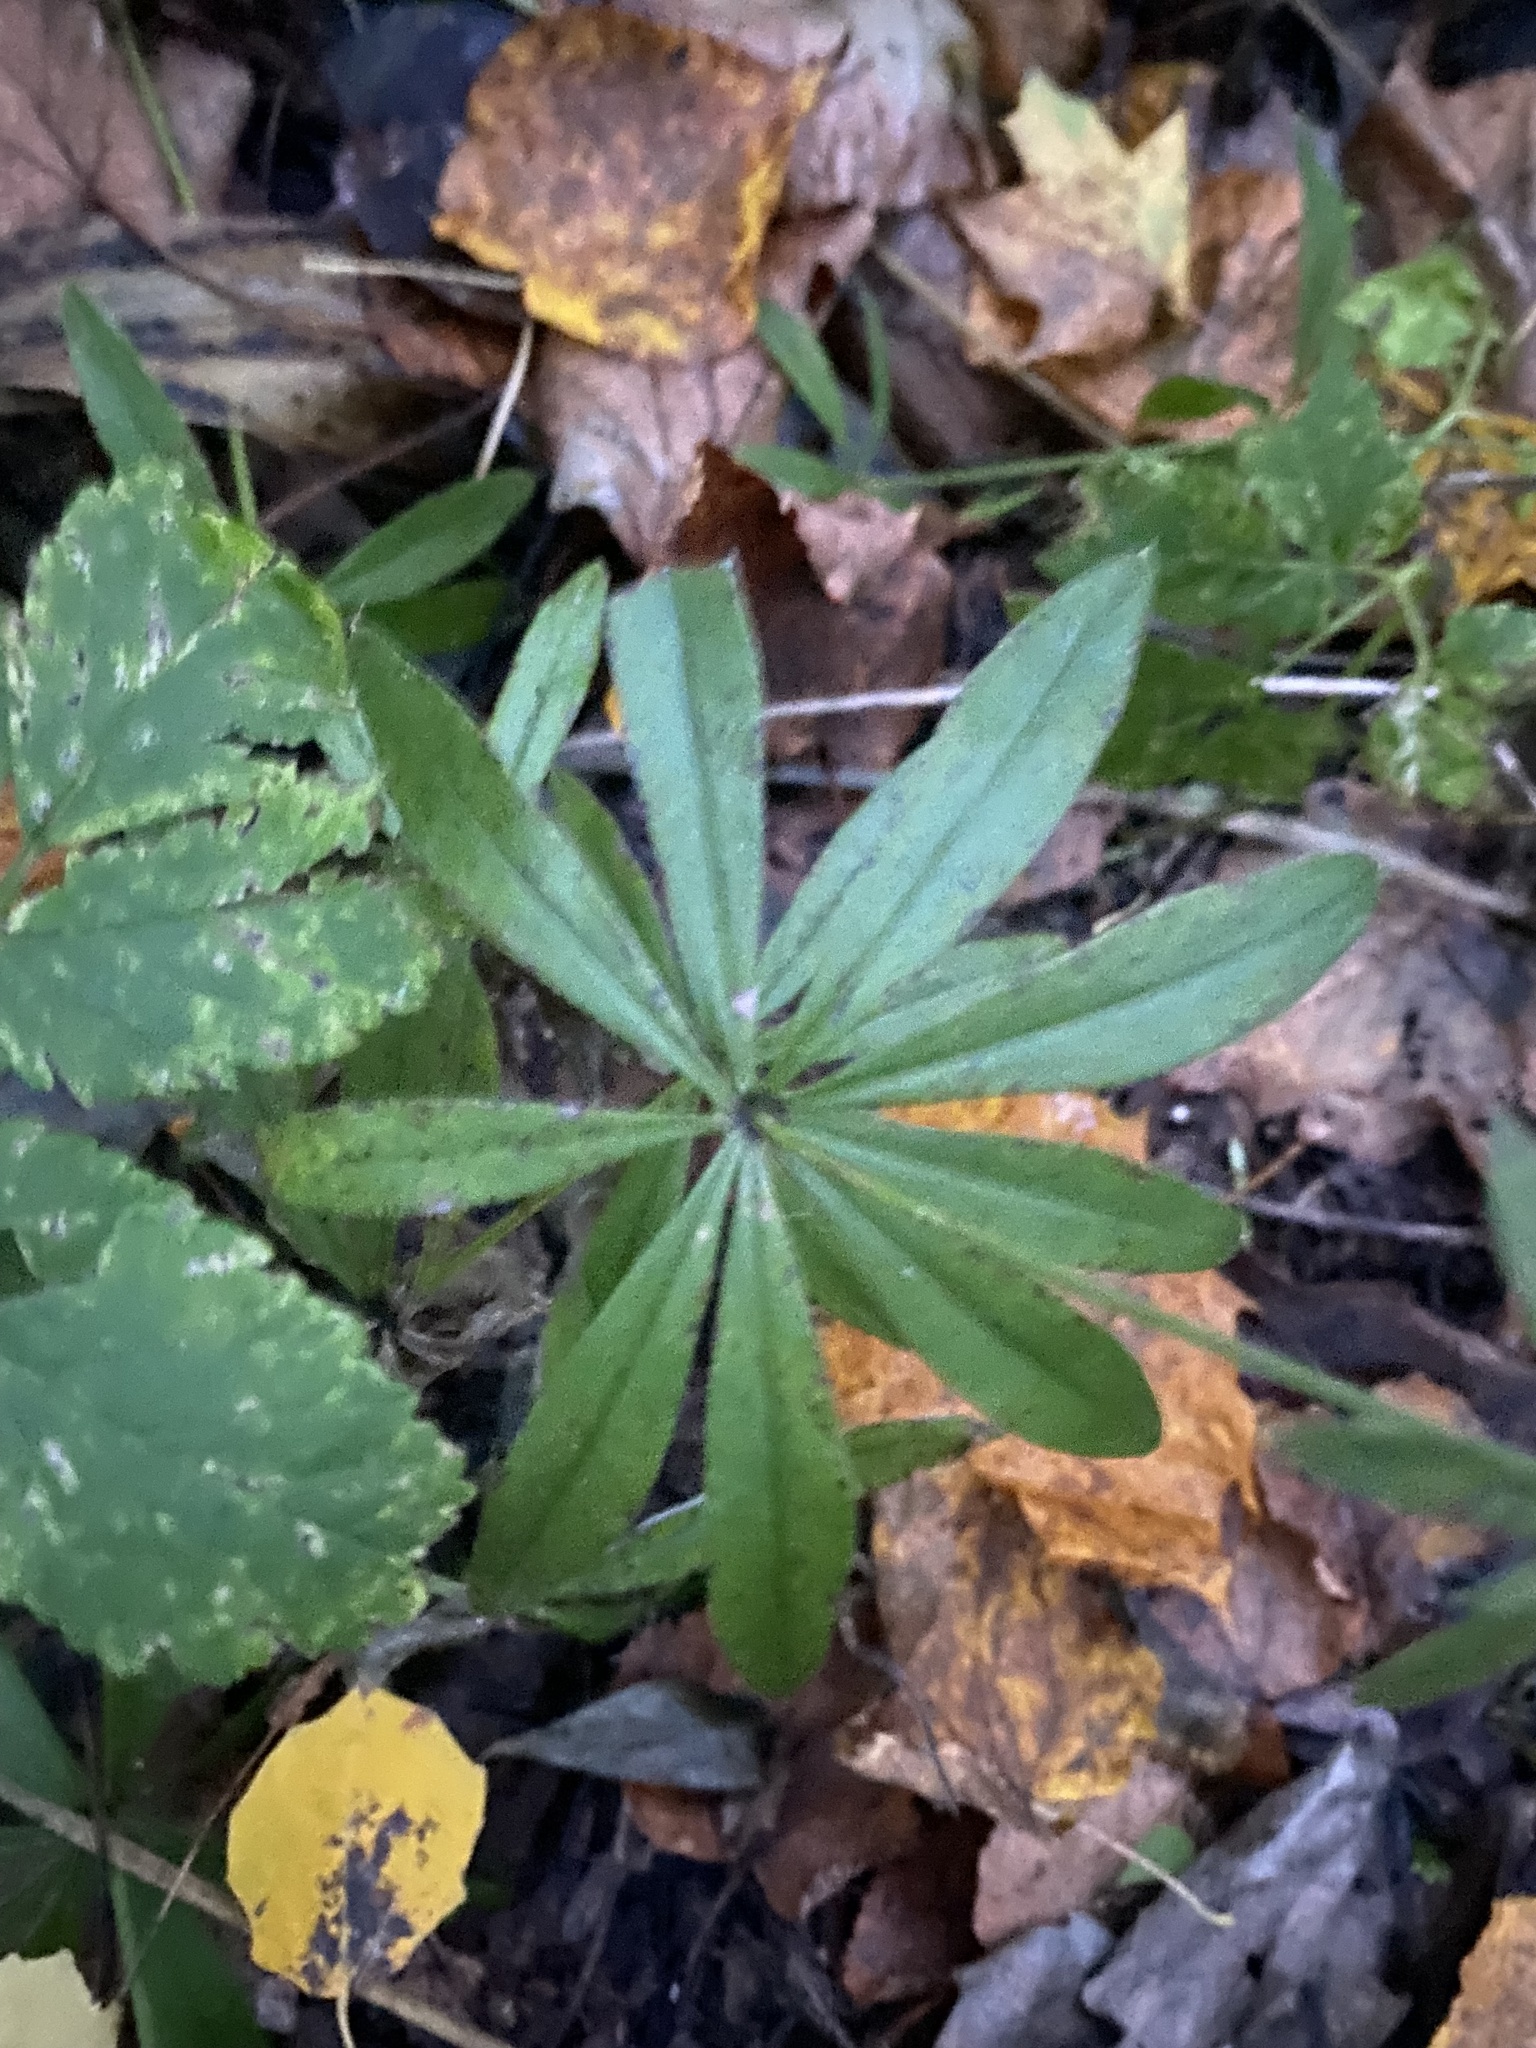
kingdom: Plantae
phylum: Tracheophyta
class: Magnoliopsida
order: Gentianales
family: Rubiaceae
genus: Galium
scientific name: Galium odoratum
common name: Sweet woodruff
